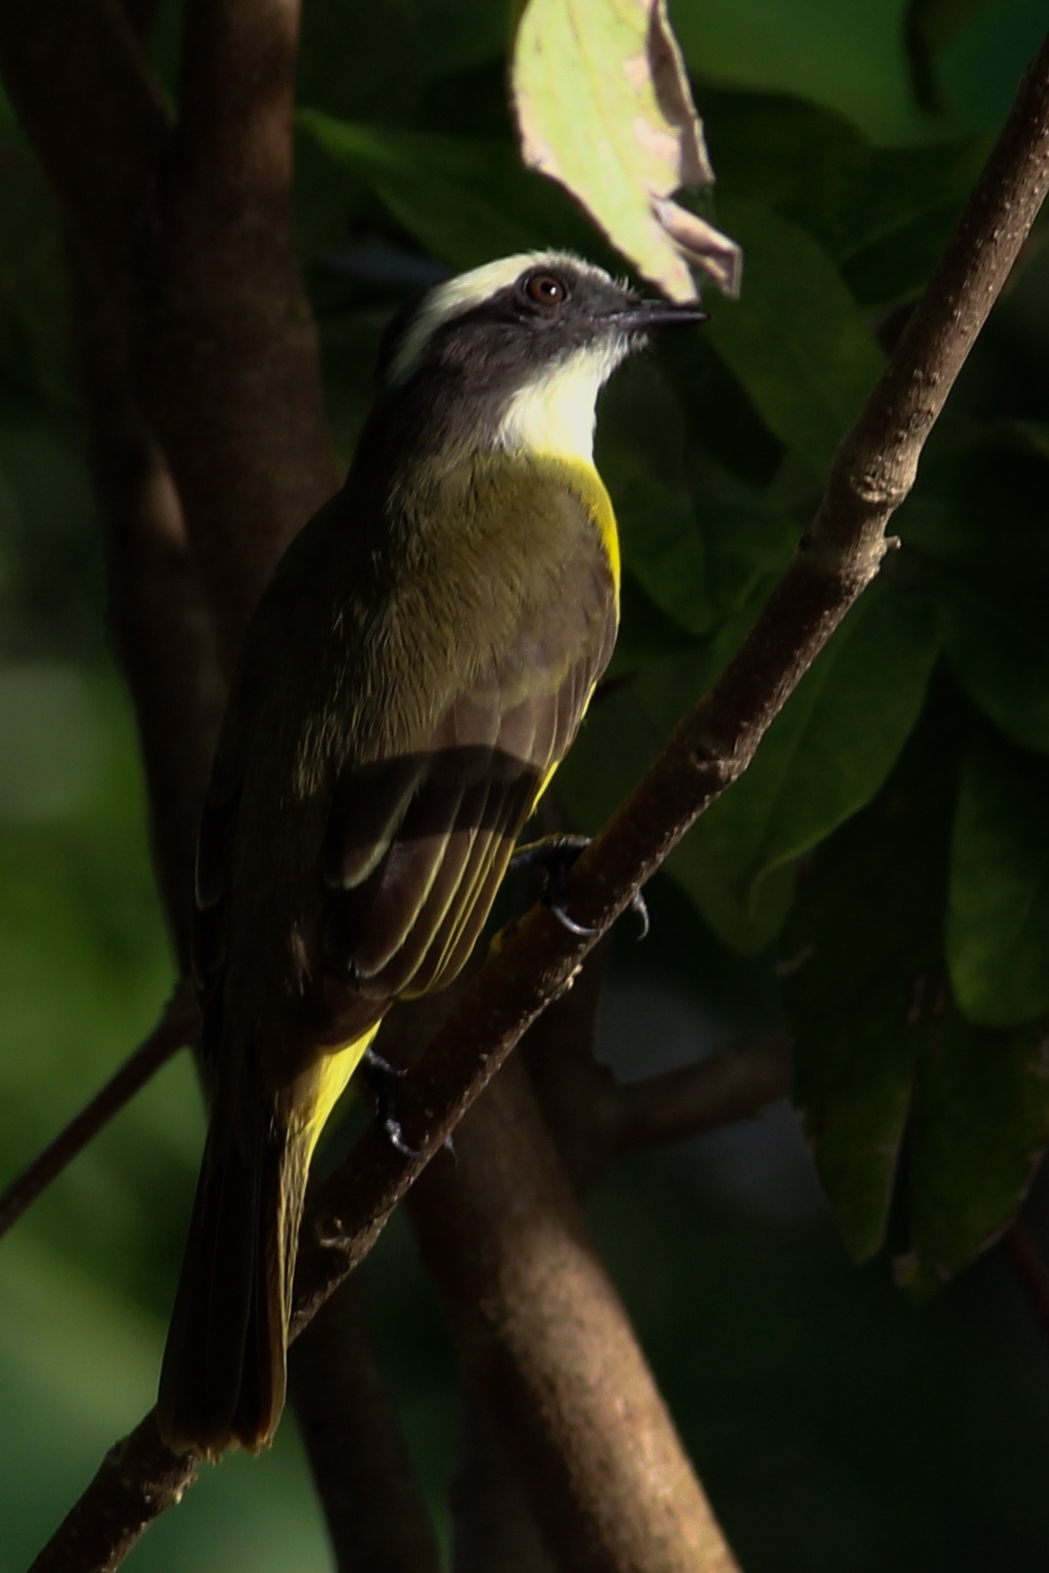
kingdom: Animalia
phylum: Chordata
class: Aves
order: Passeriformes
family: Tyrannidae
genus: Myiozetetes
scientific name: Myiozetetes similis
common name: Social flycatcher
